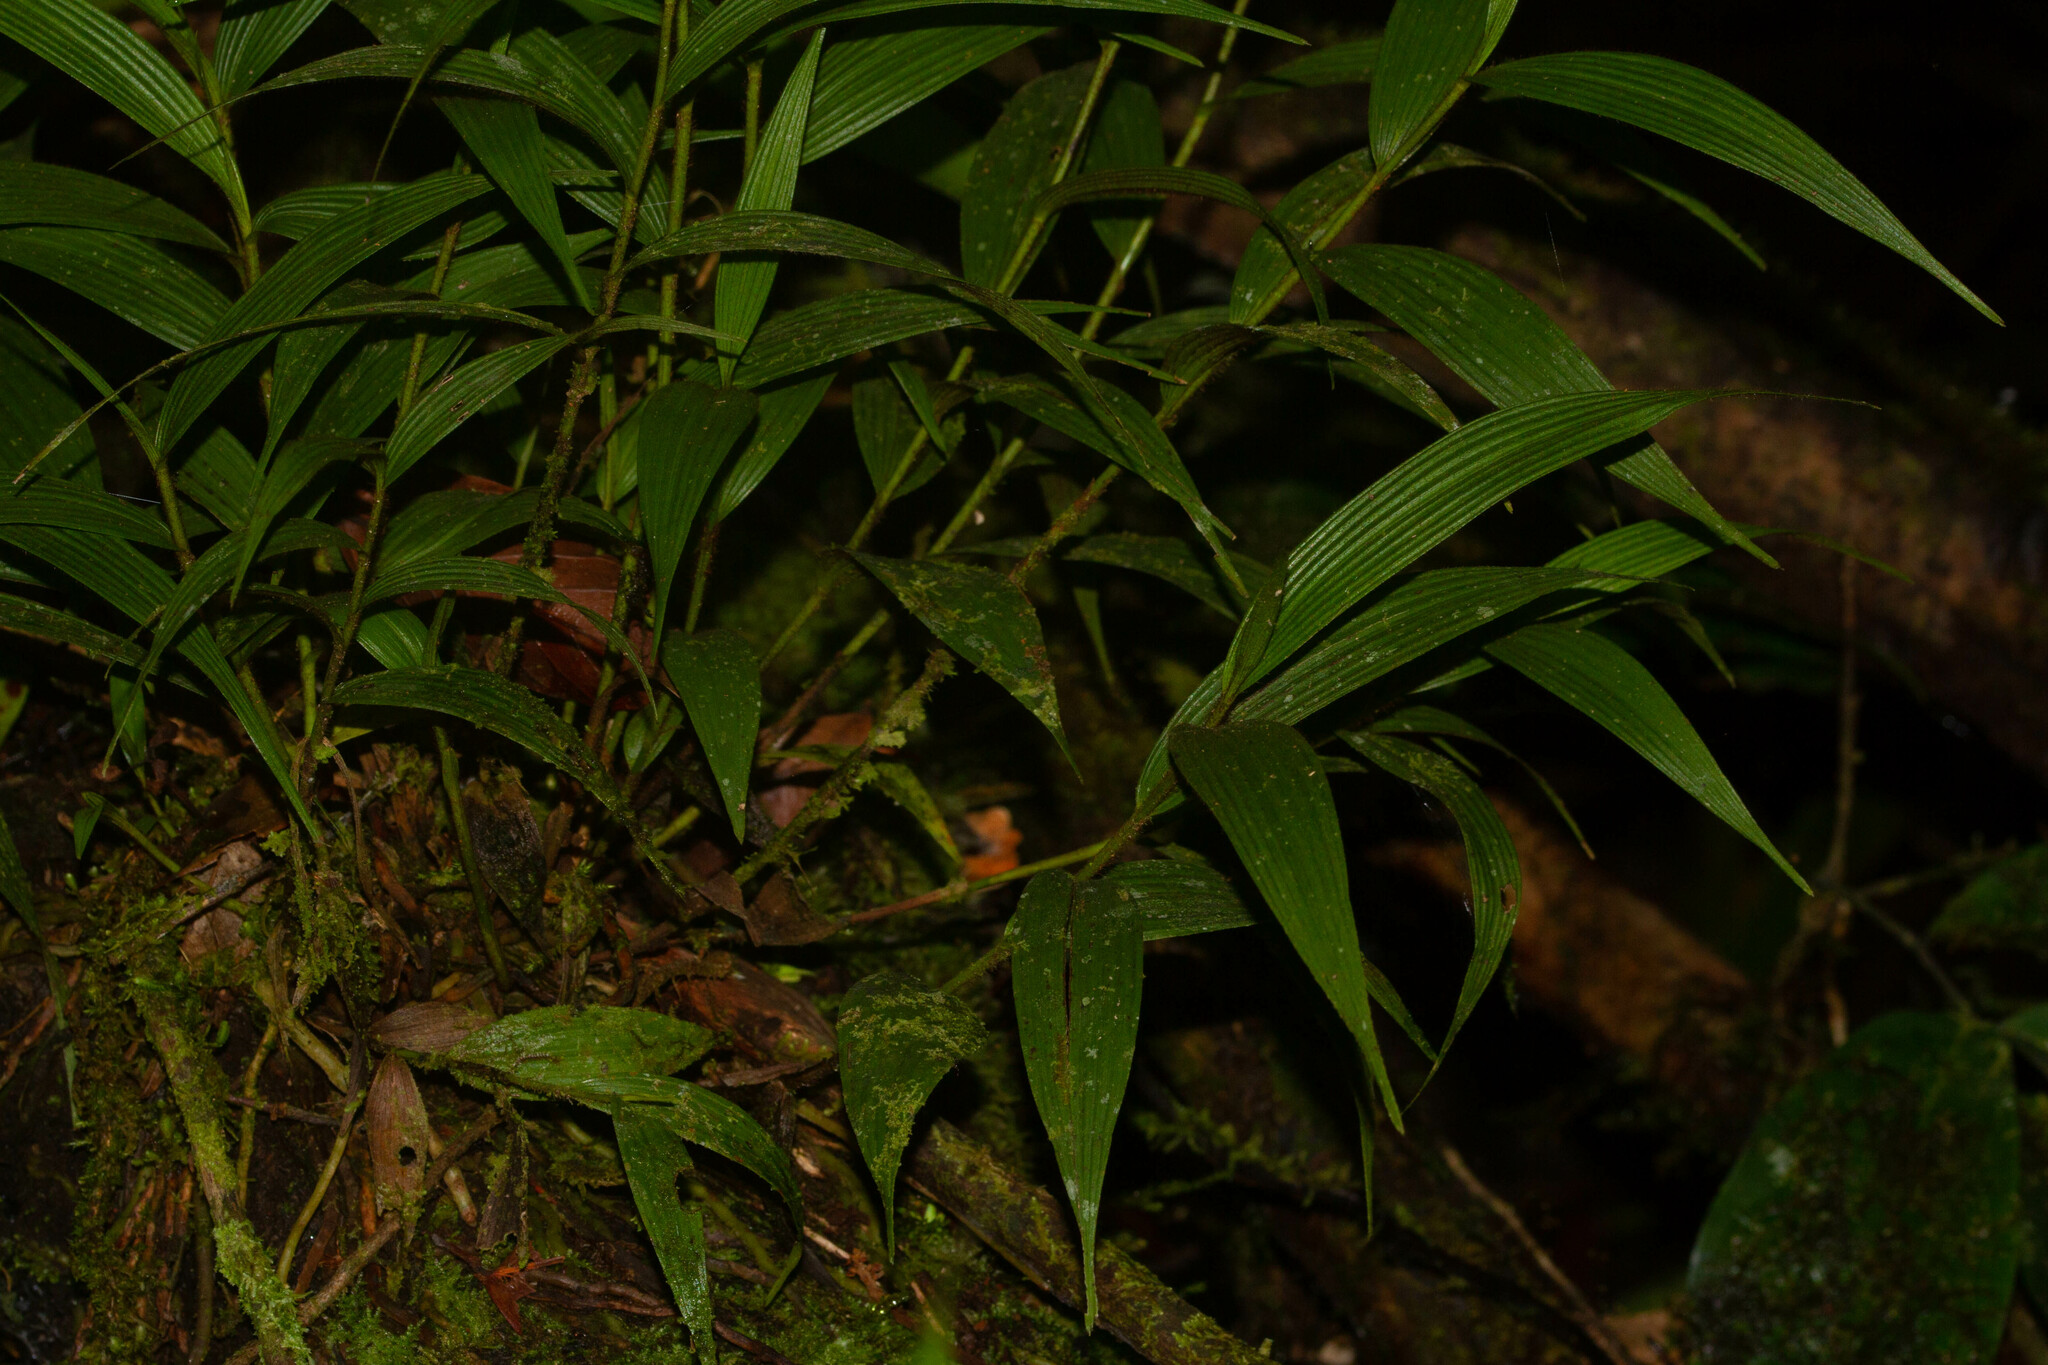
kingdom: Plantae
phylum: Tracheophyta
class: Liliopsida
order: Asparagales
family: Orchidaceae
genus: Elleanthus
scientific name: Elleanthus caravata
